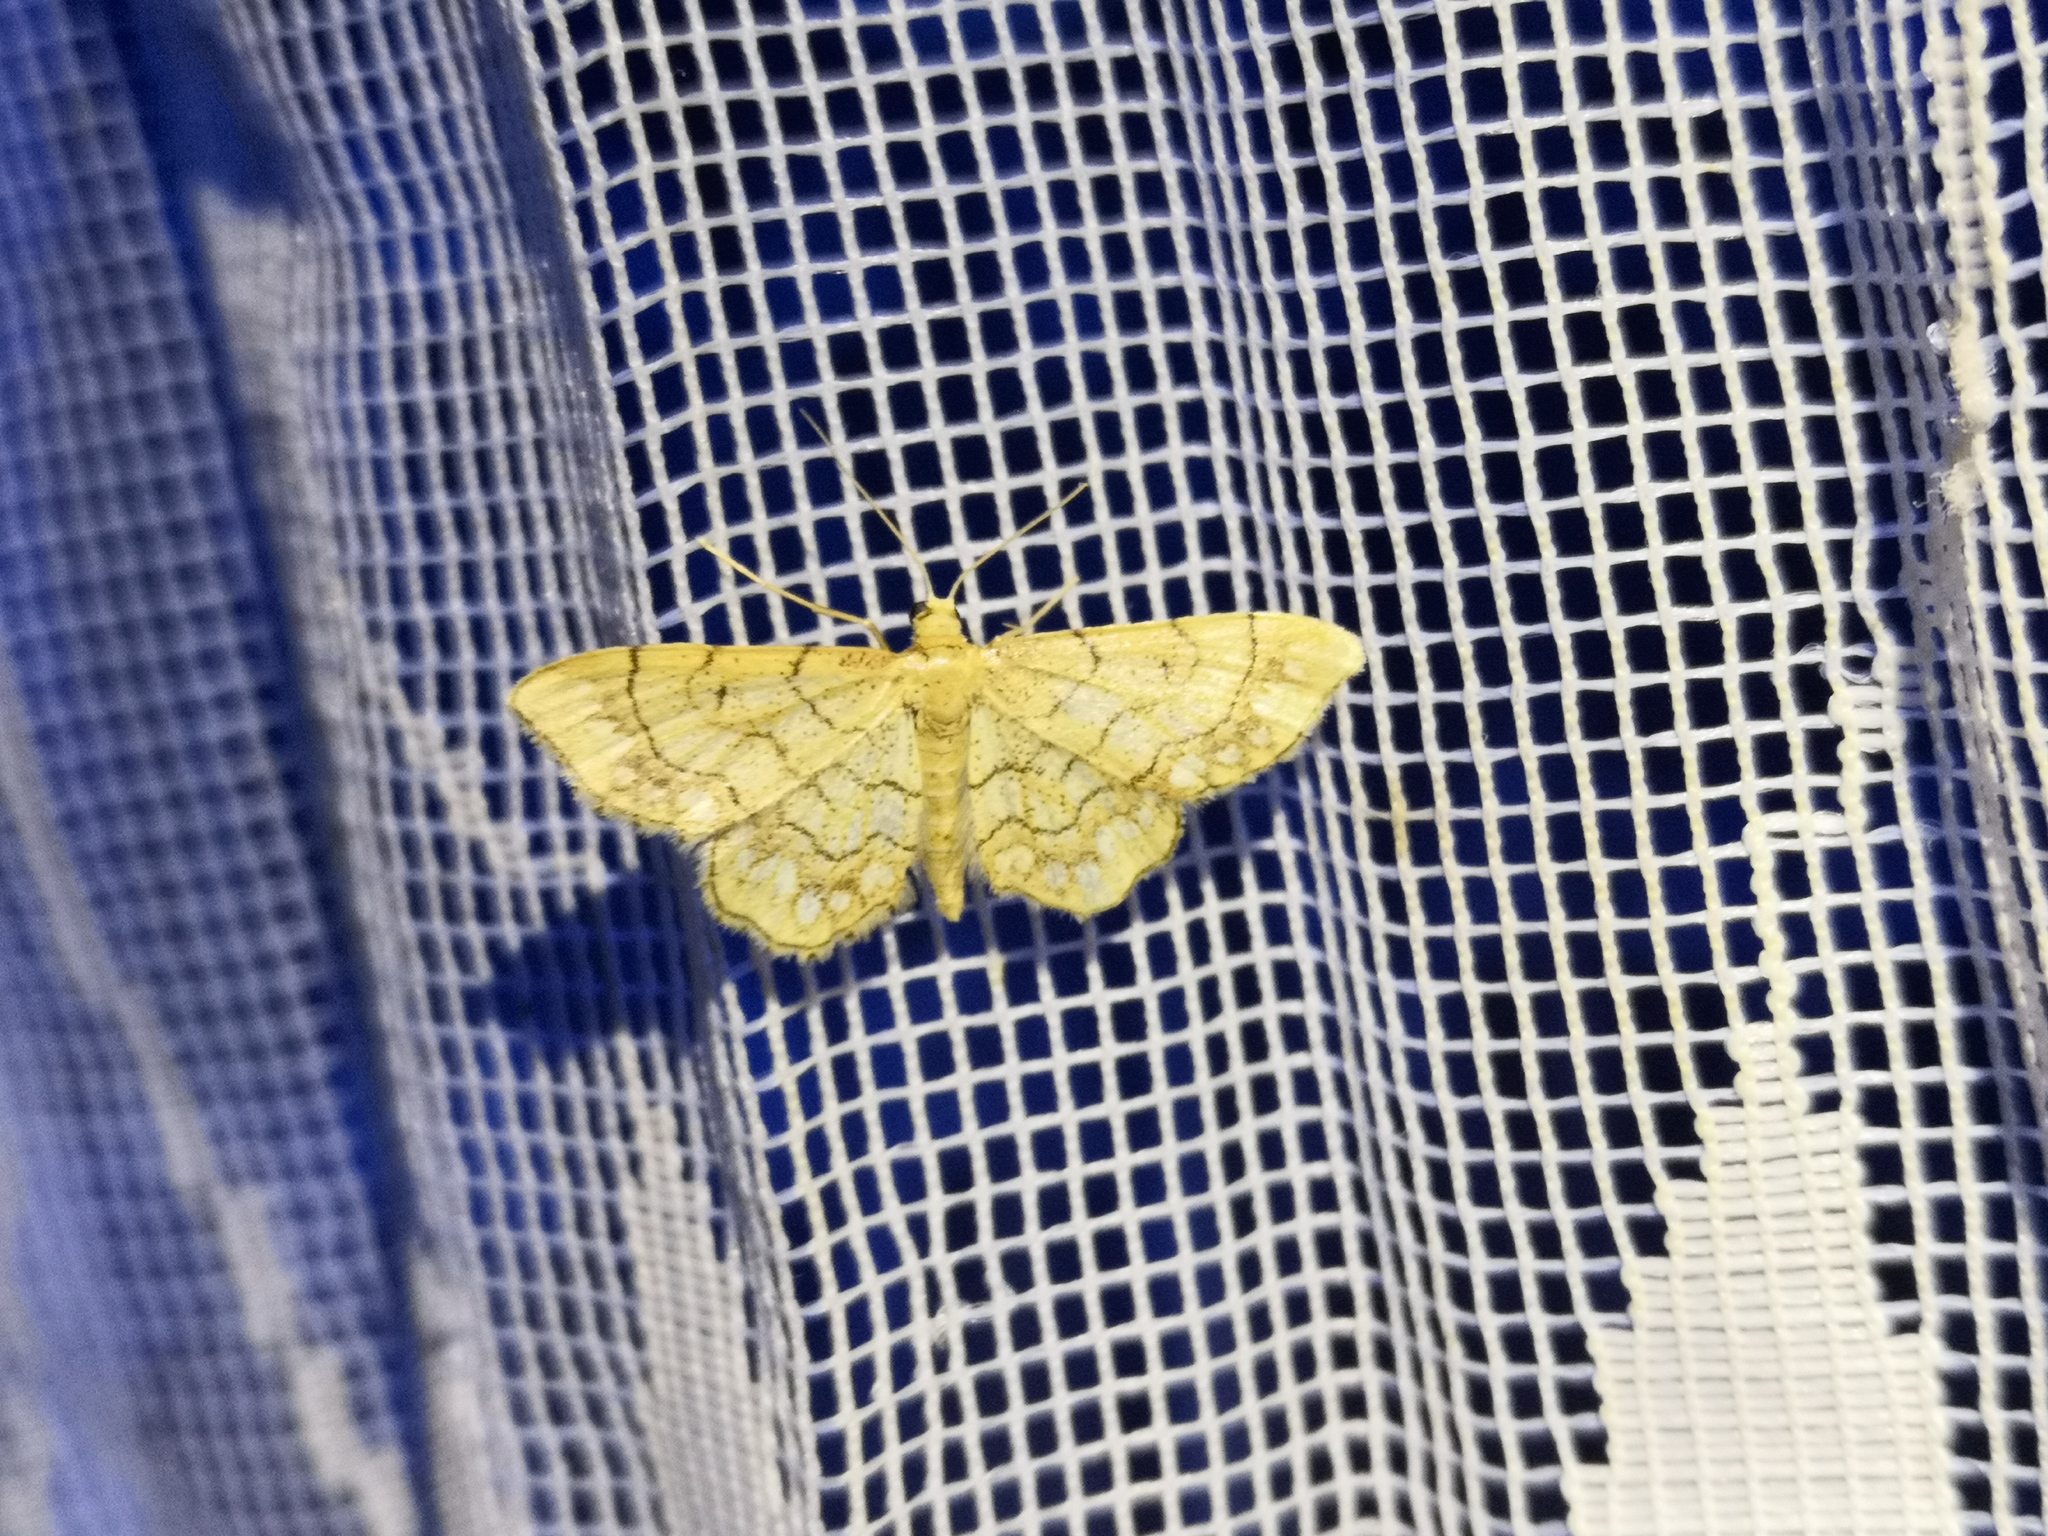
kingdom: Animalia
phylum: Arthropoda
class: Insecta
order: Lepidoptera
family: Geometridae
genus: Idaea
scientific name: Idaea moniliata
